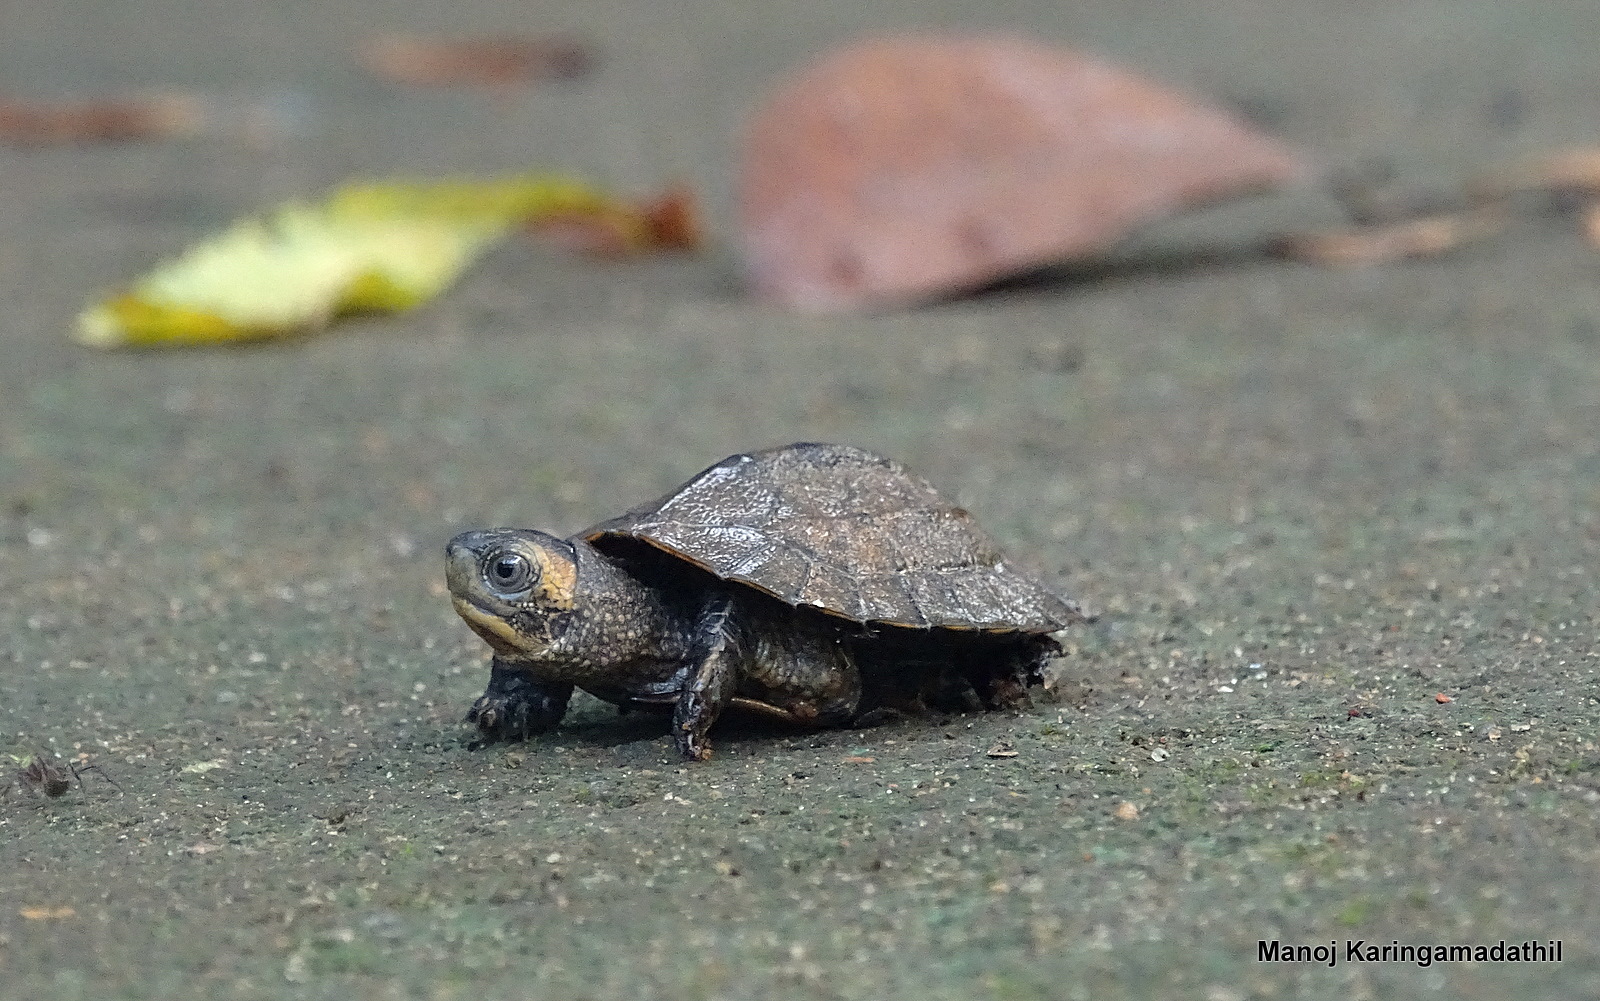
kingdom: Animalia
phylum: Chordata
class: Testudines
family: Geoemydidae
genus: Melanochelys
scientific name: Melanochelys trijuga
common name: Indian black turtle
